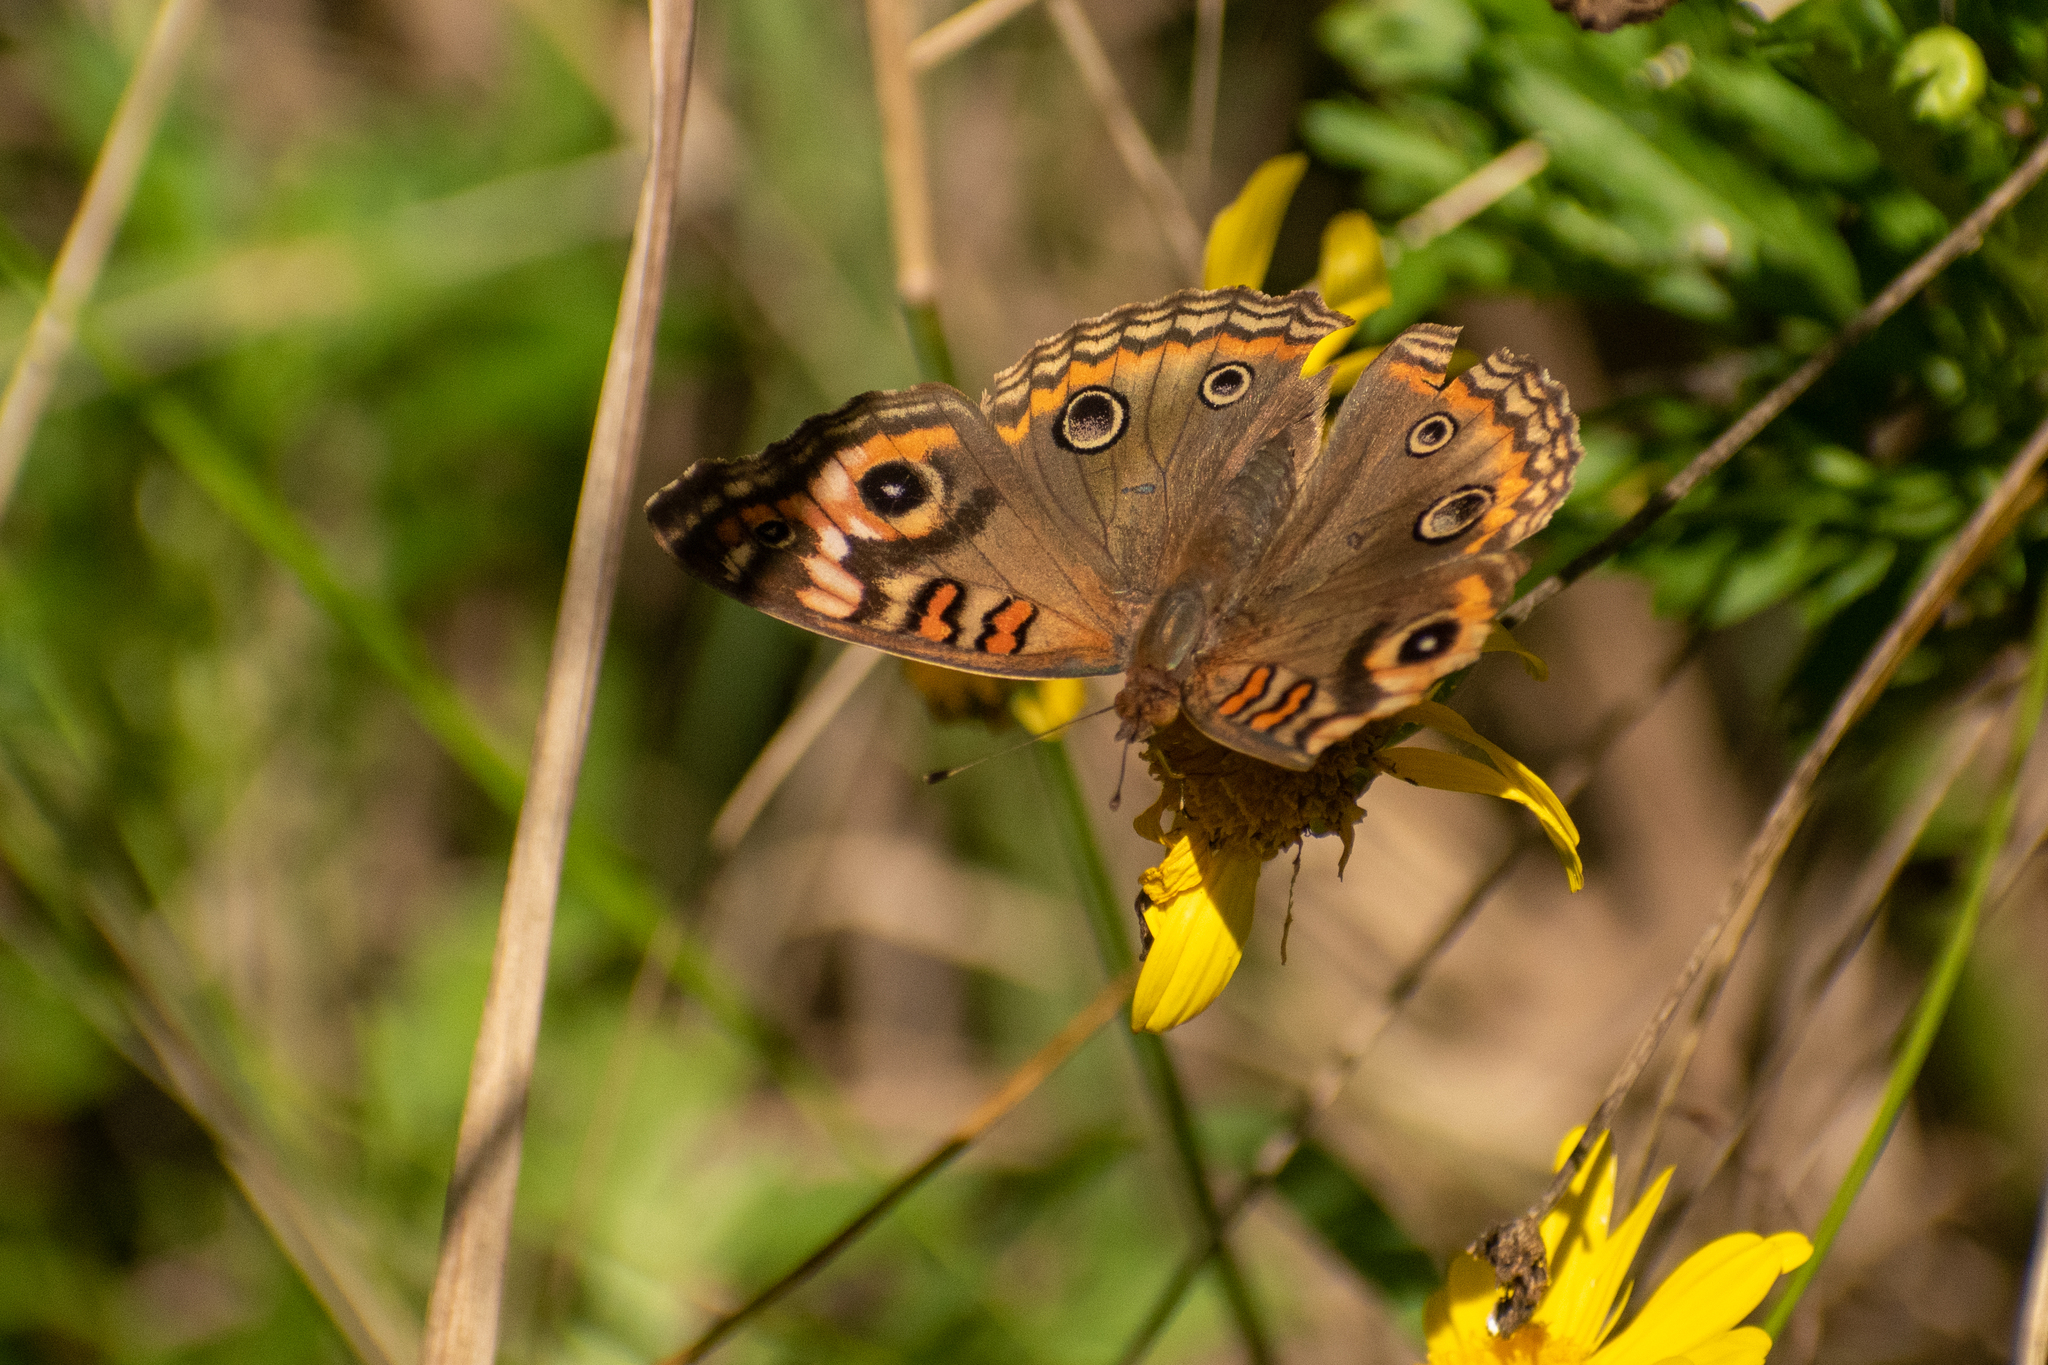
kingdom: Animalia
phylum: Arthropoda
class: Insecta
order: Lepidoptera
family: Nymphalidae
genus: Junonia
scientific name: Junonia lavinia
